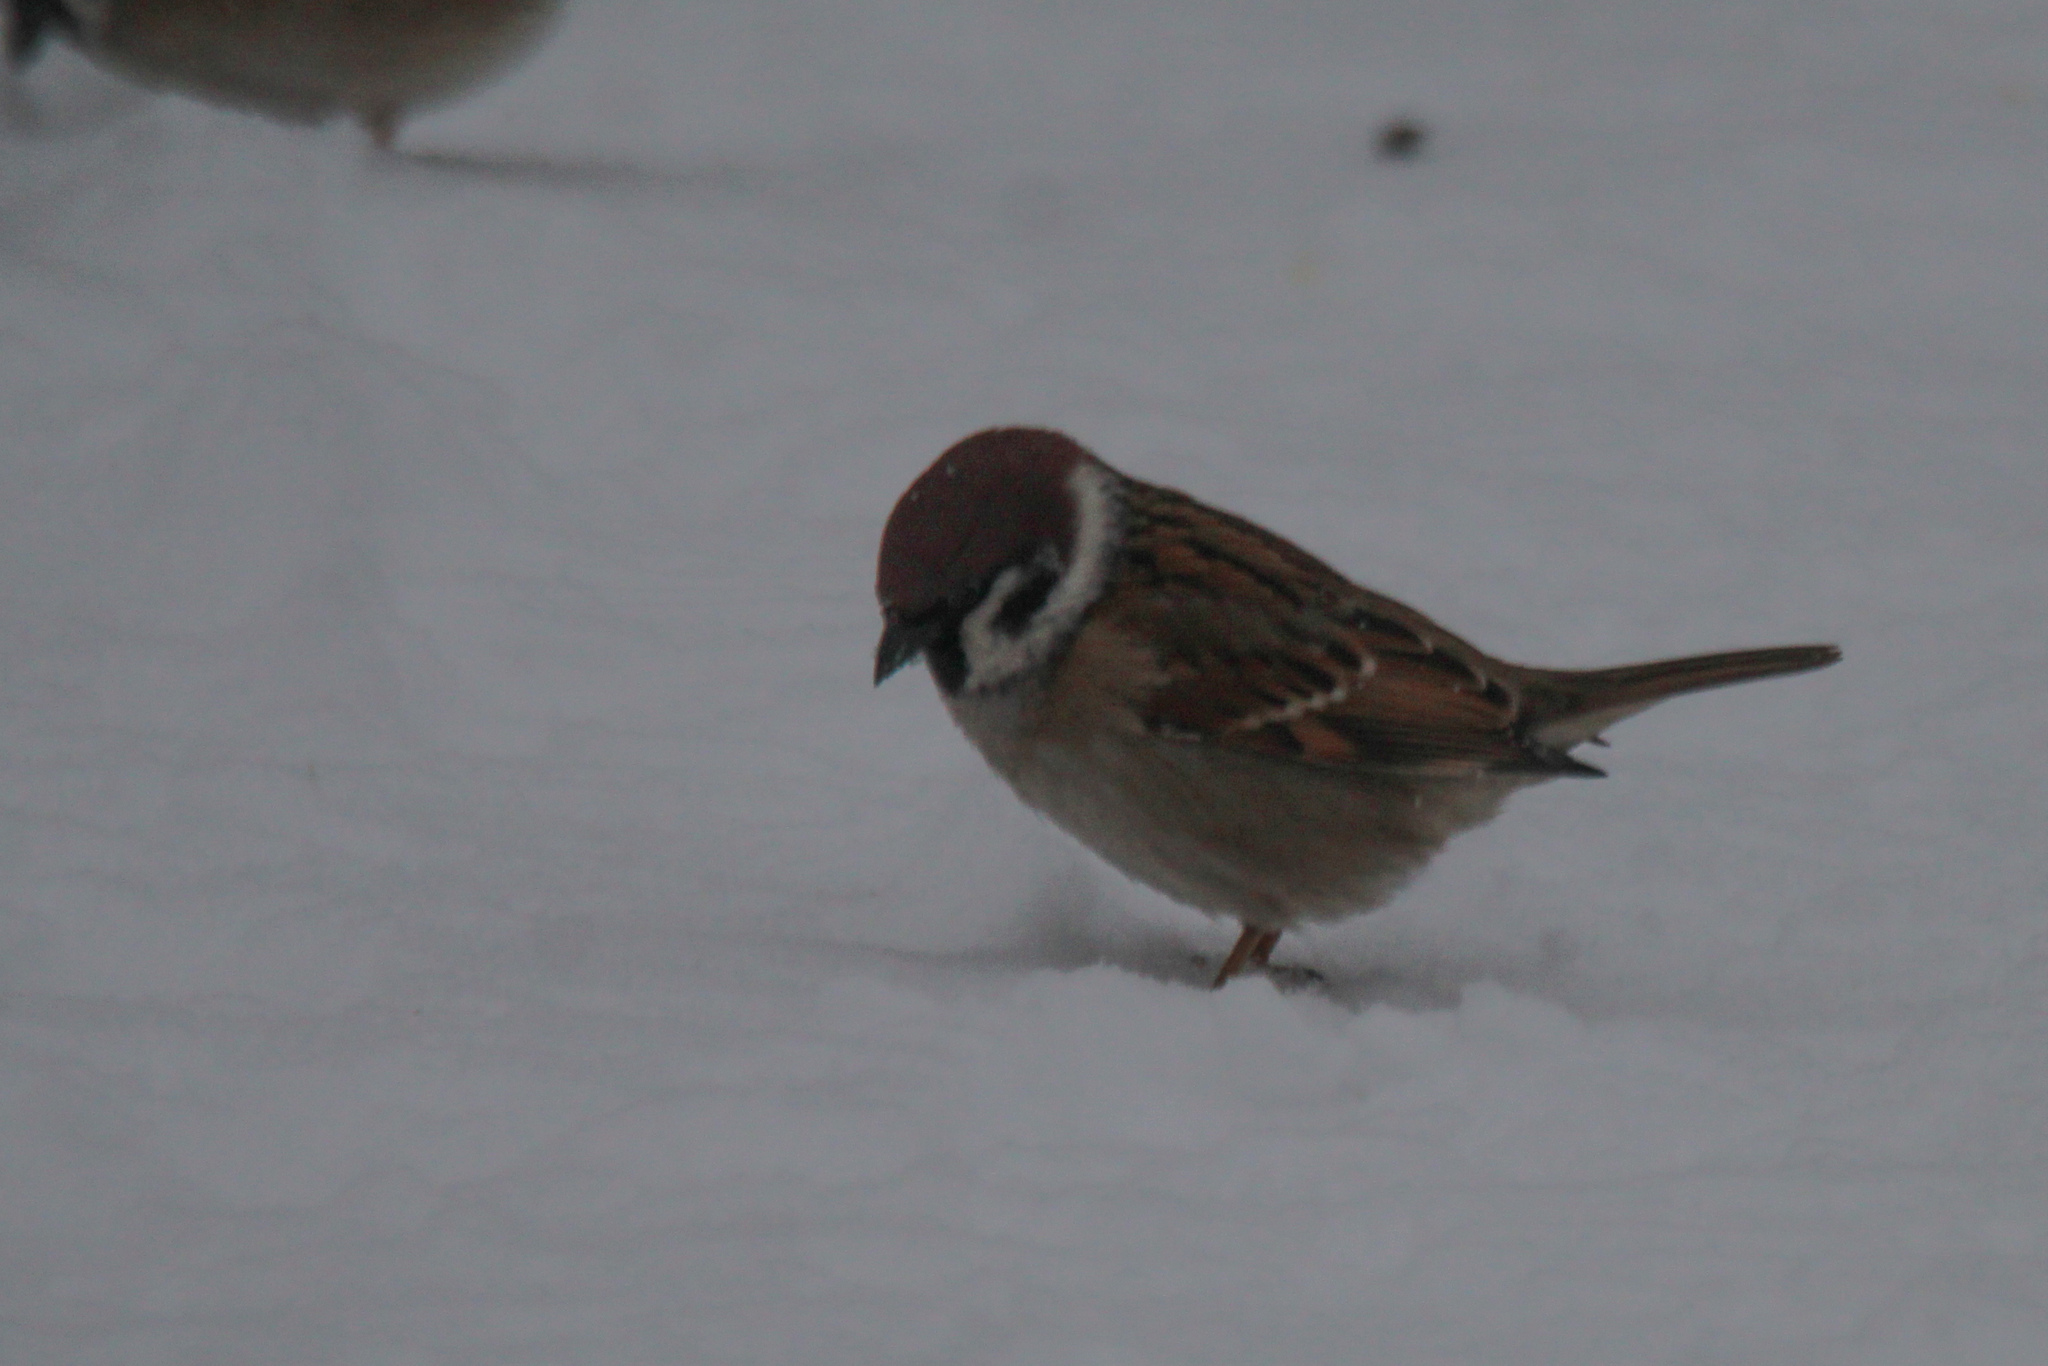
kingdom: Animalia
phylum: Chordata
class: Aves
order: Passeriformes
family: Passeridae
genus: Passer
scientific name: Passer montanus
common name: Eurasian tree sparrow
